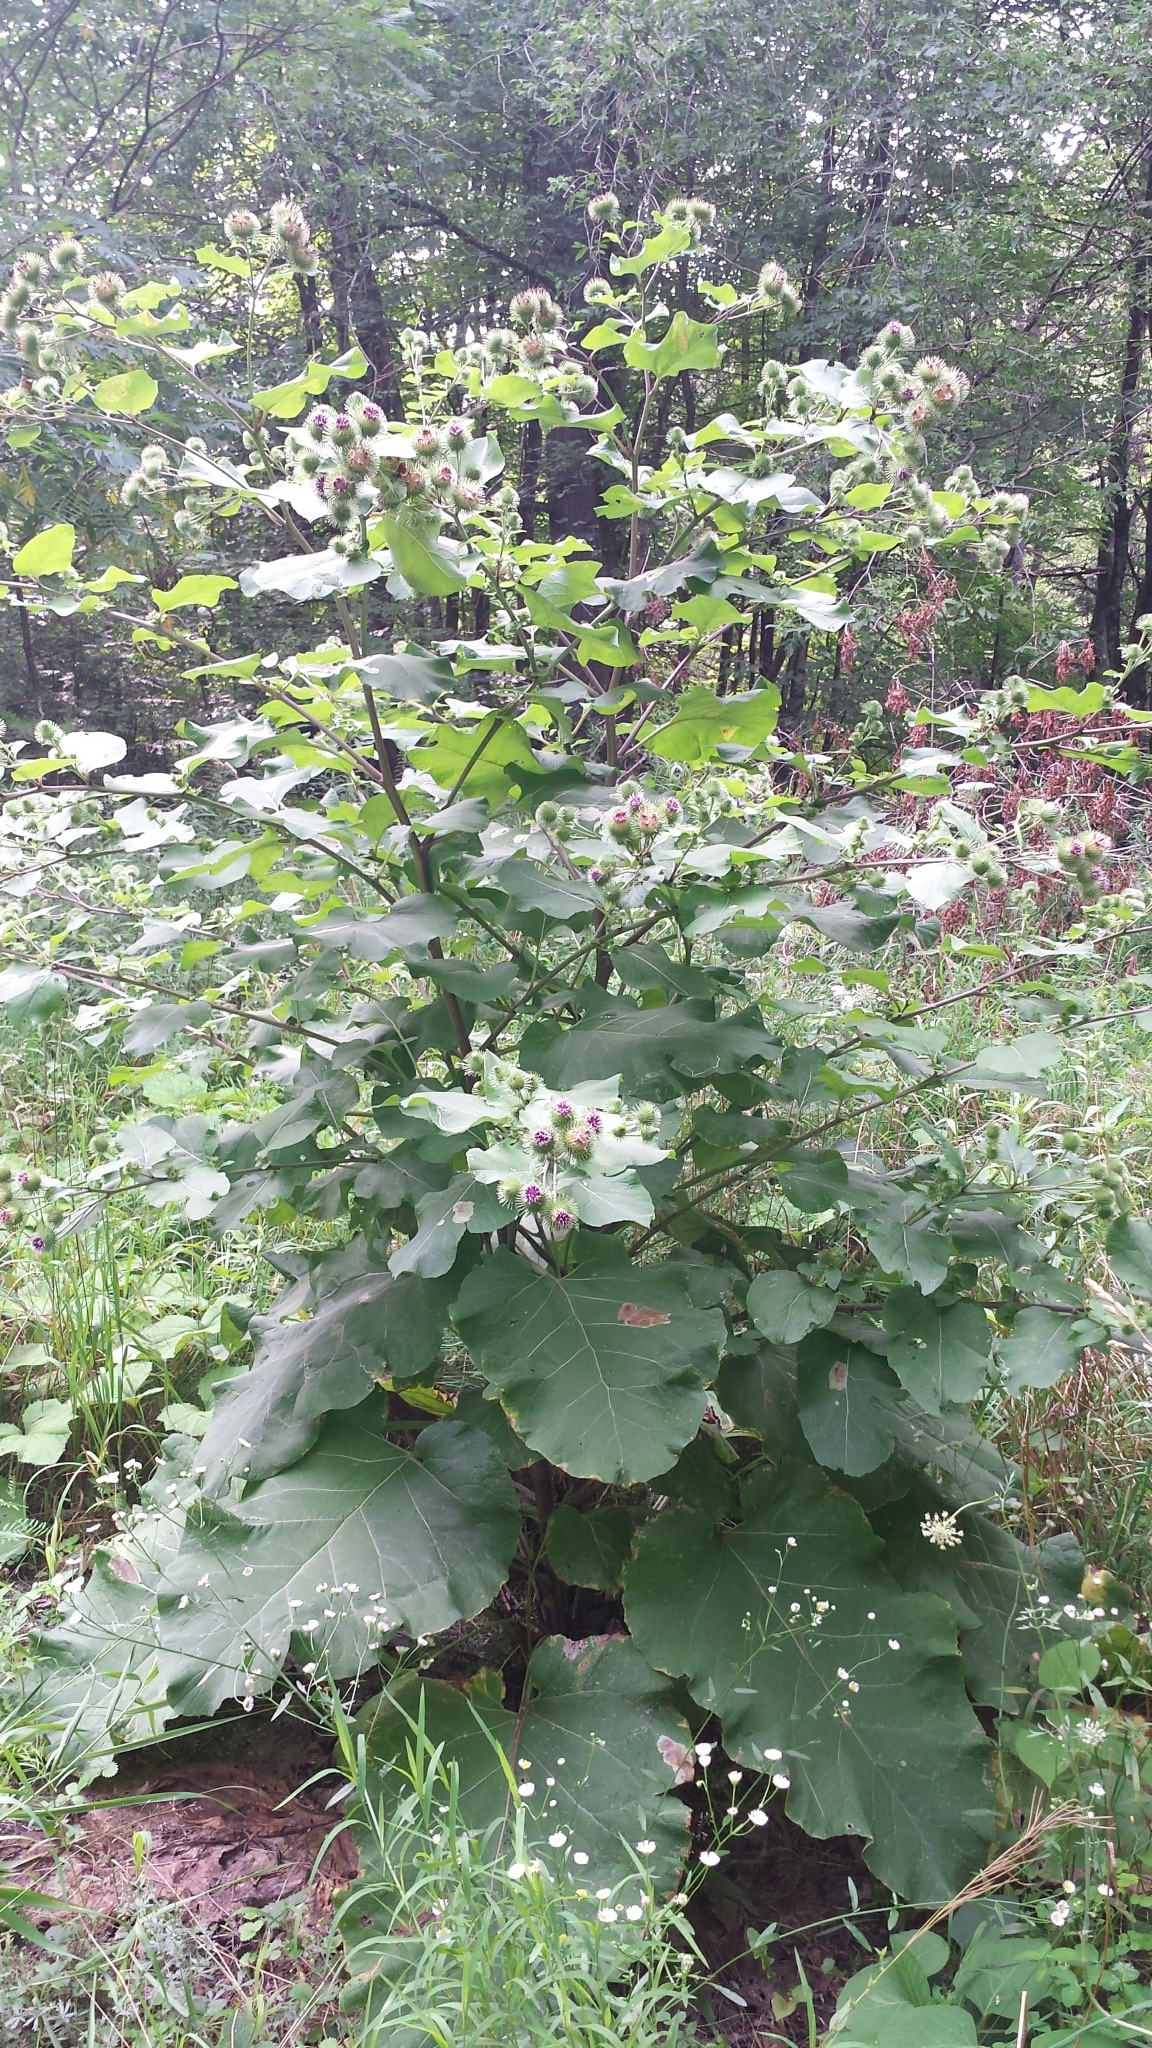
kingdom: Plantae
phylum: Tracheophyta
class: Magnoliopsida
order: Asterales
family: Asteraceae
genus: Arctium
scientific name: Arctium lappa
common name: Greater burdock
